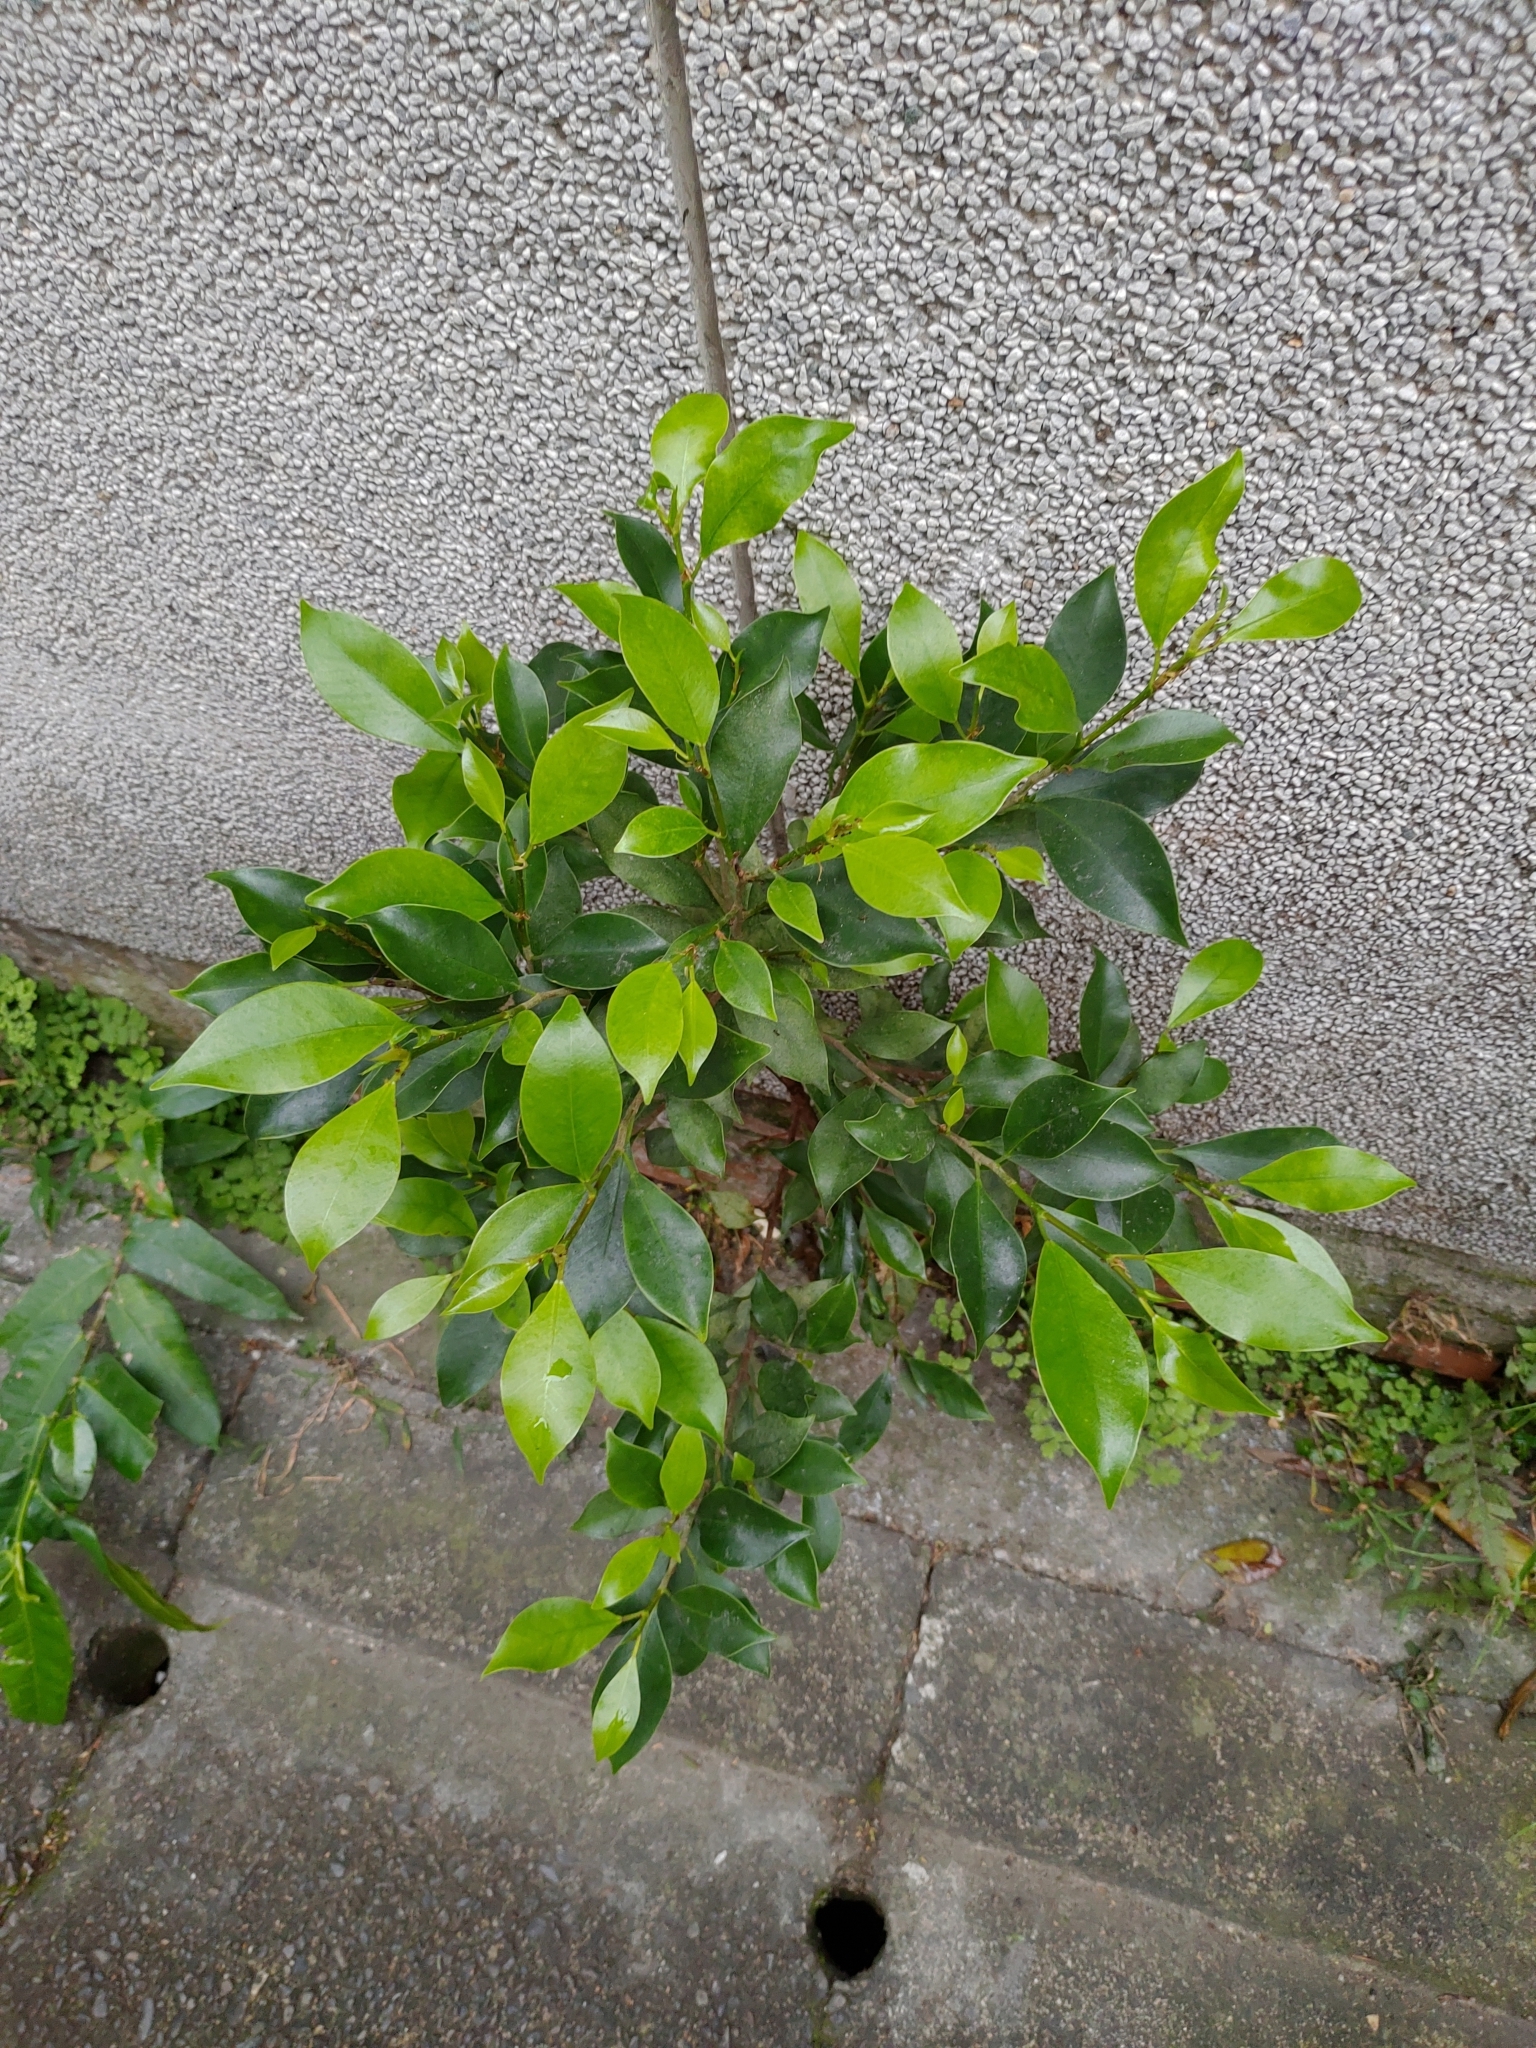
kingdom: Plantae
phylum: Tracheophyta
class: Magnoliopsida
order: Rosales
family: Moraceae
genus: Ficus
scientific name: Ficus microcarpa
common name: Chinese banyan
